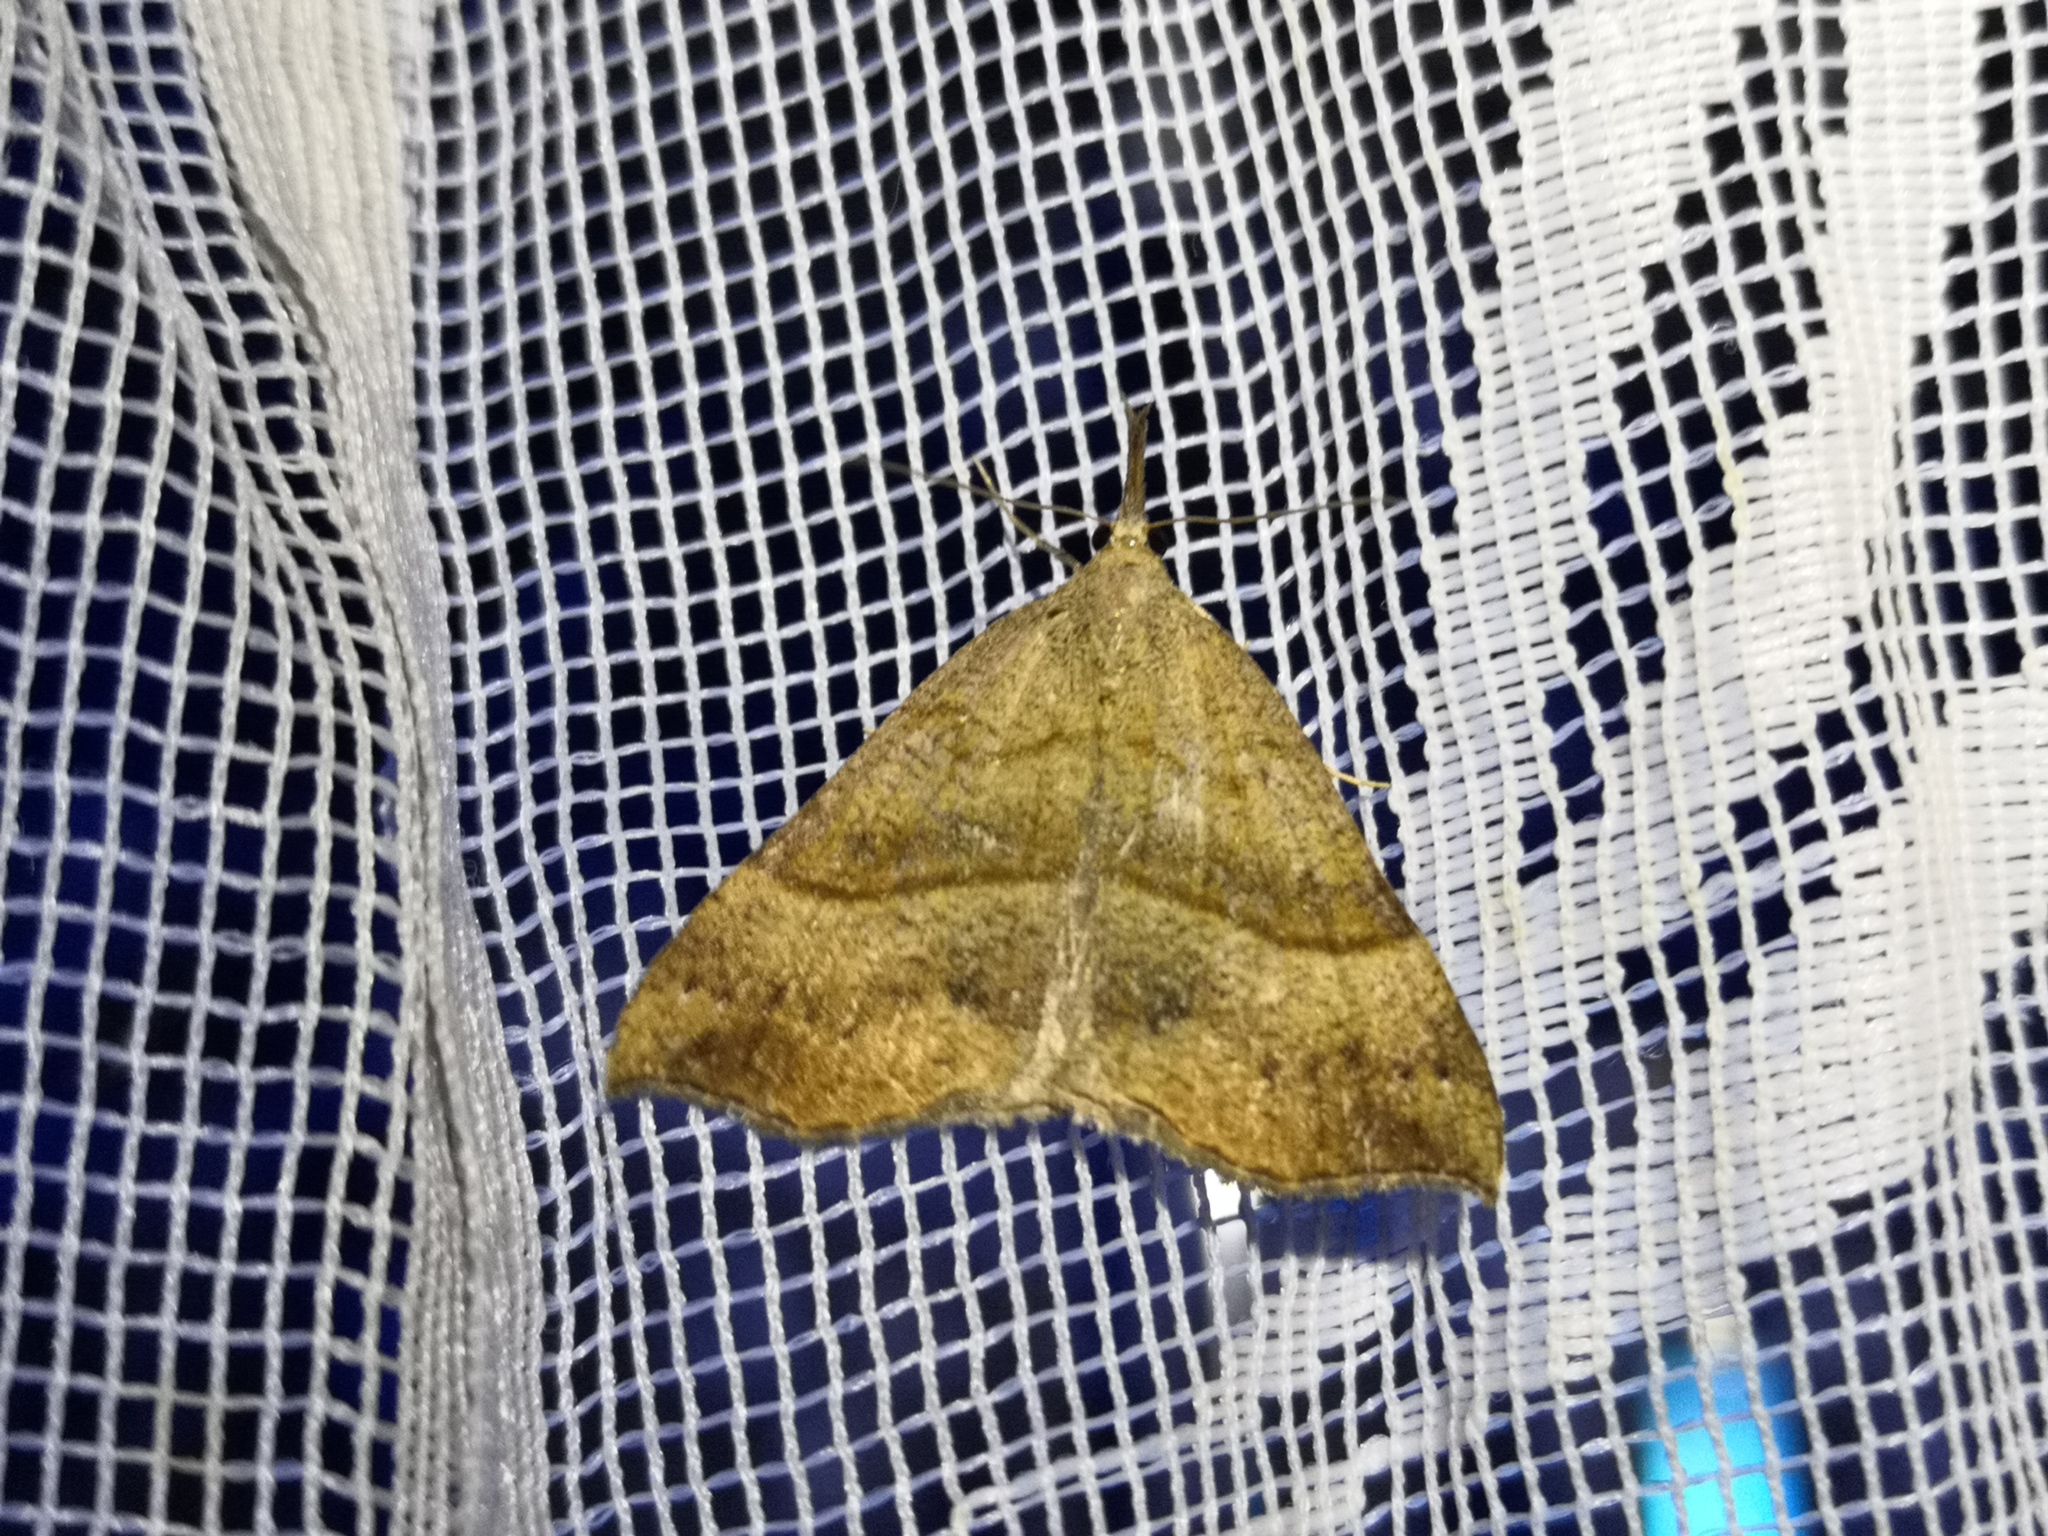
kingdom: Animalia
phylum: Arthropoda
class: Insecta
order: Lepidoptera
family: Erebidae
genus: Hypena
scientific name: Hypena proboscidalis
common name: Snout
